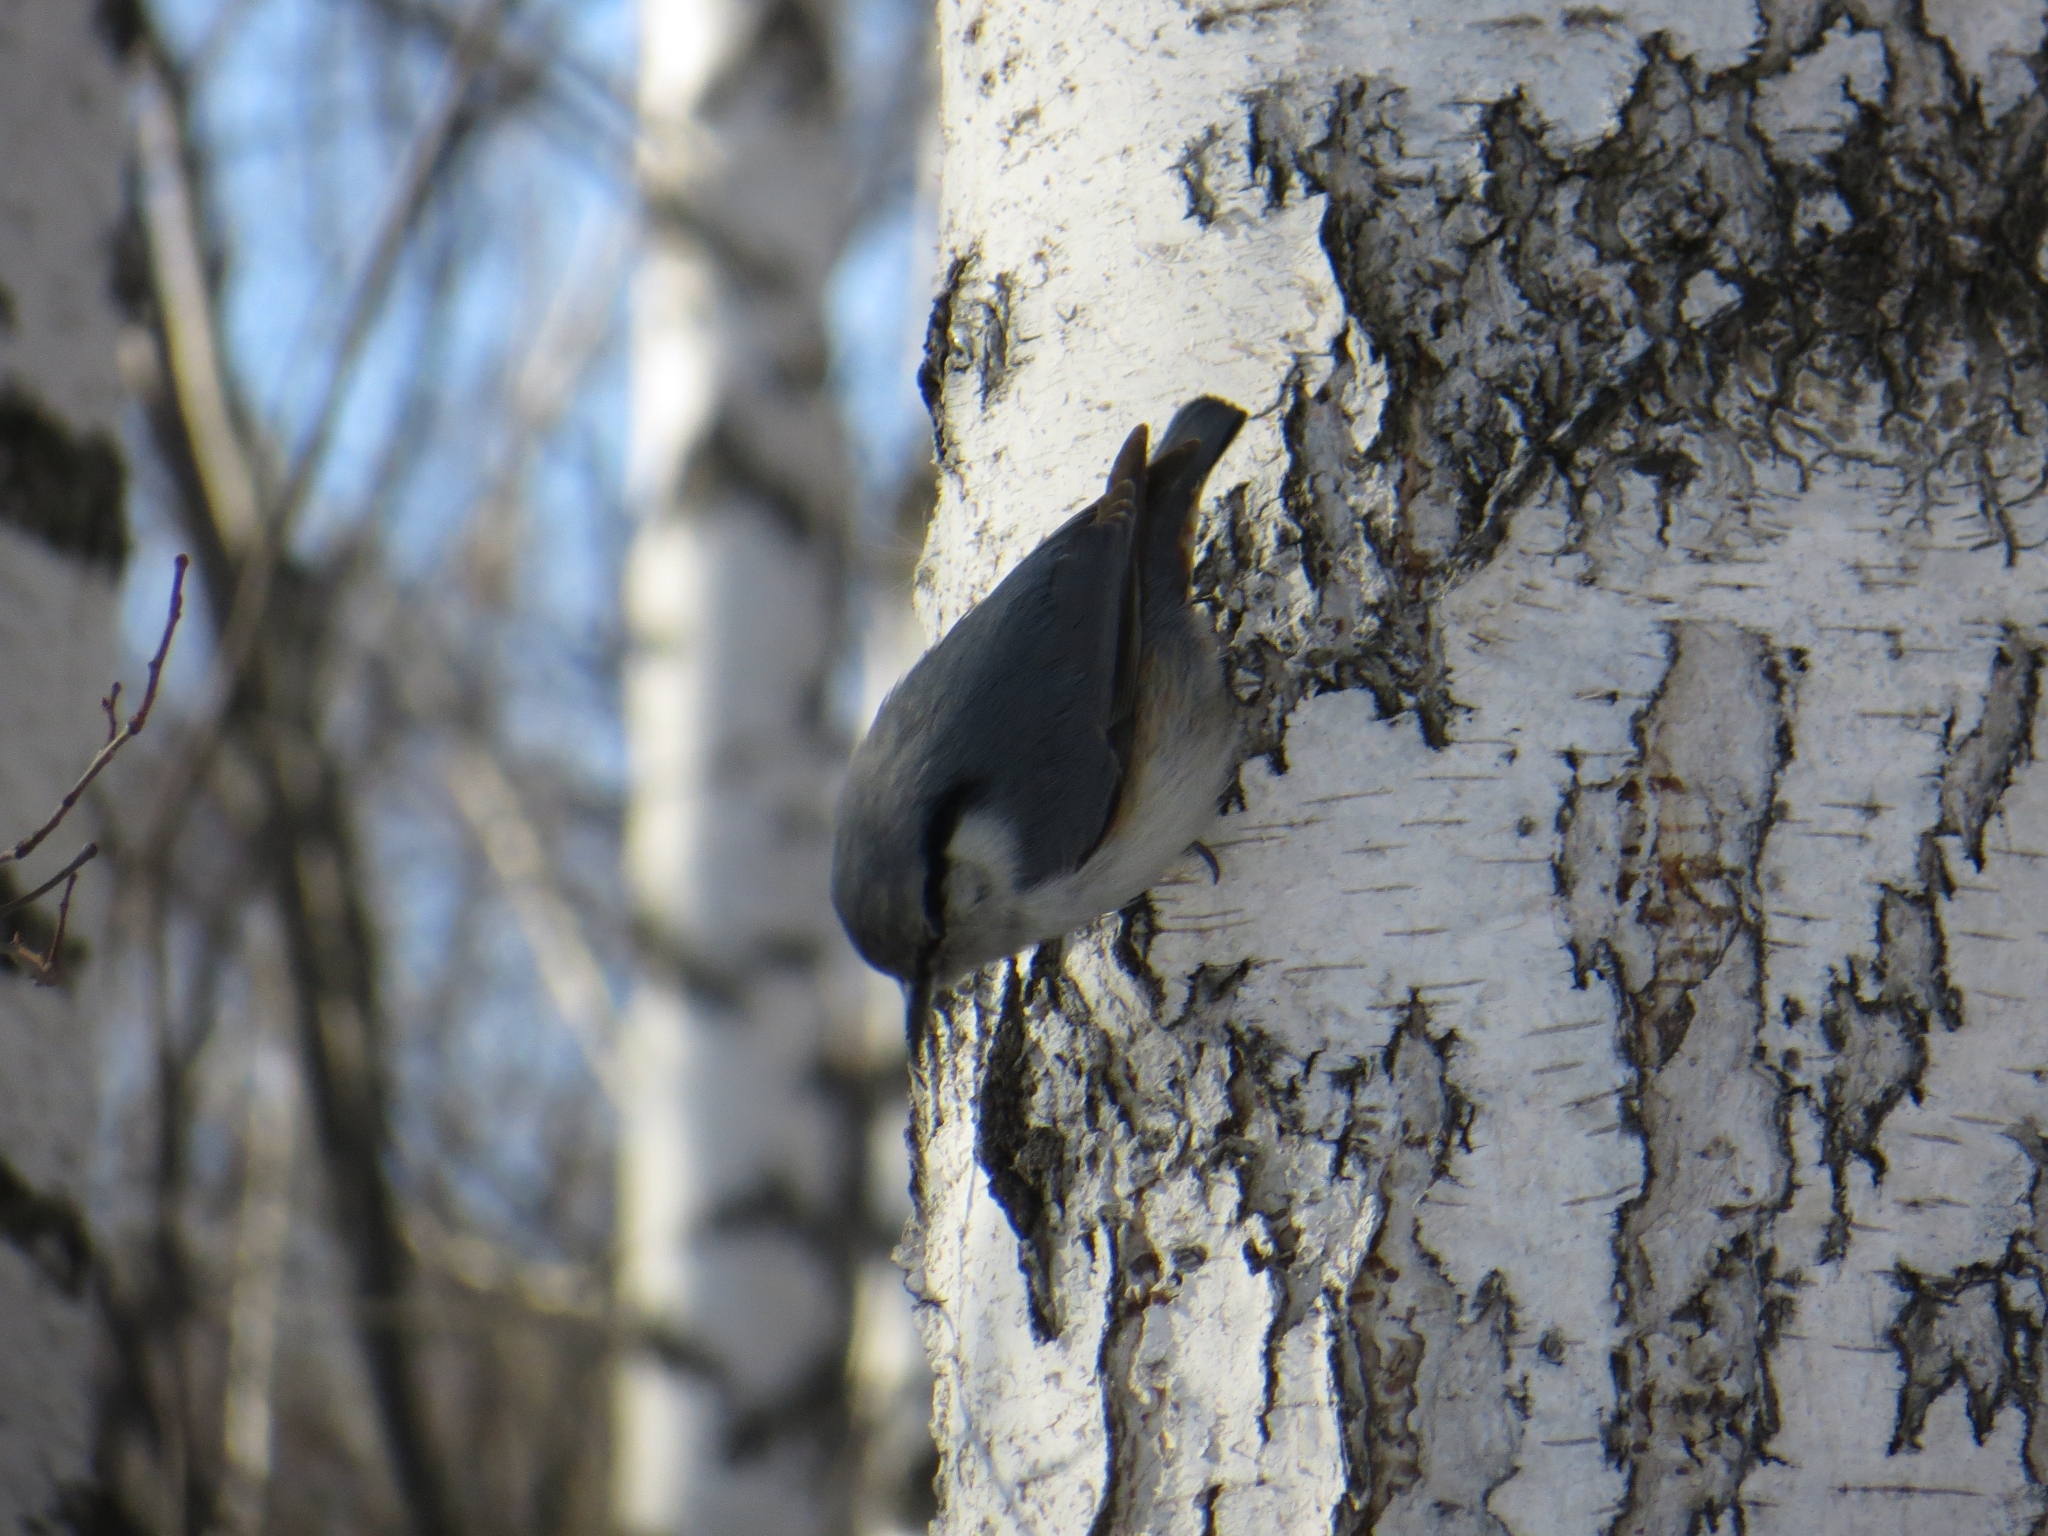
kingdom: Animalia
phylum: Chordata
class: Aves
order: Passeriformes
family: Sittidae
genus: Sitta
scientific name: Sitta europaea
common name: Eurasian nuthatch
